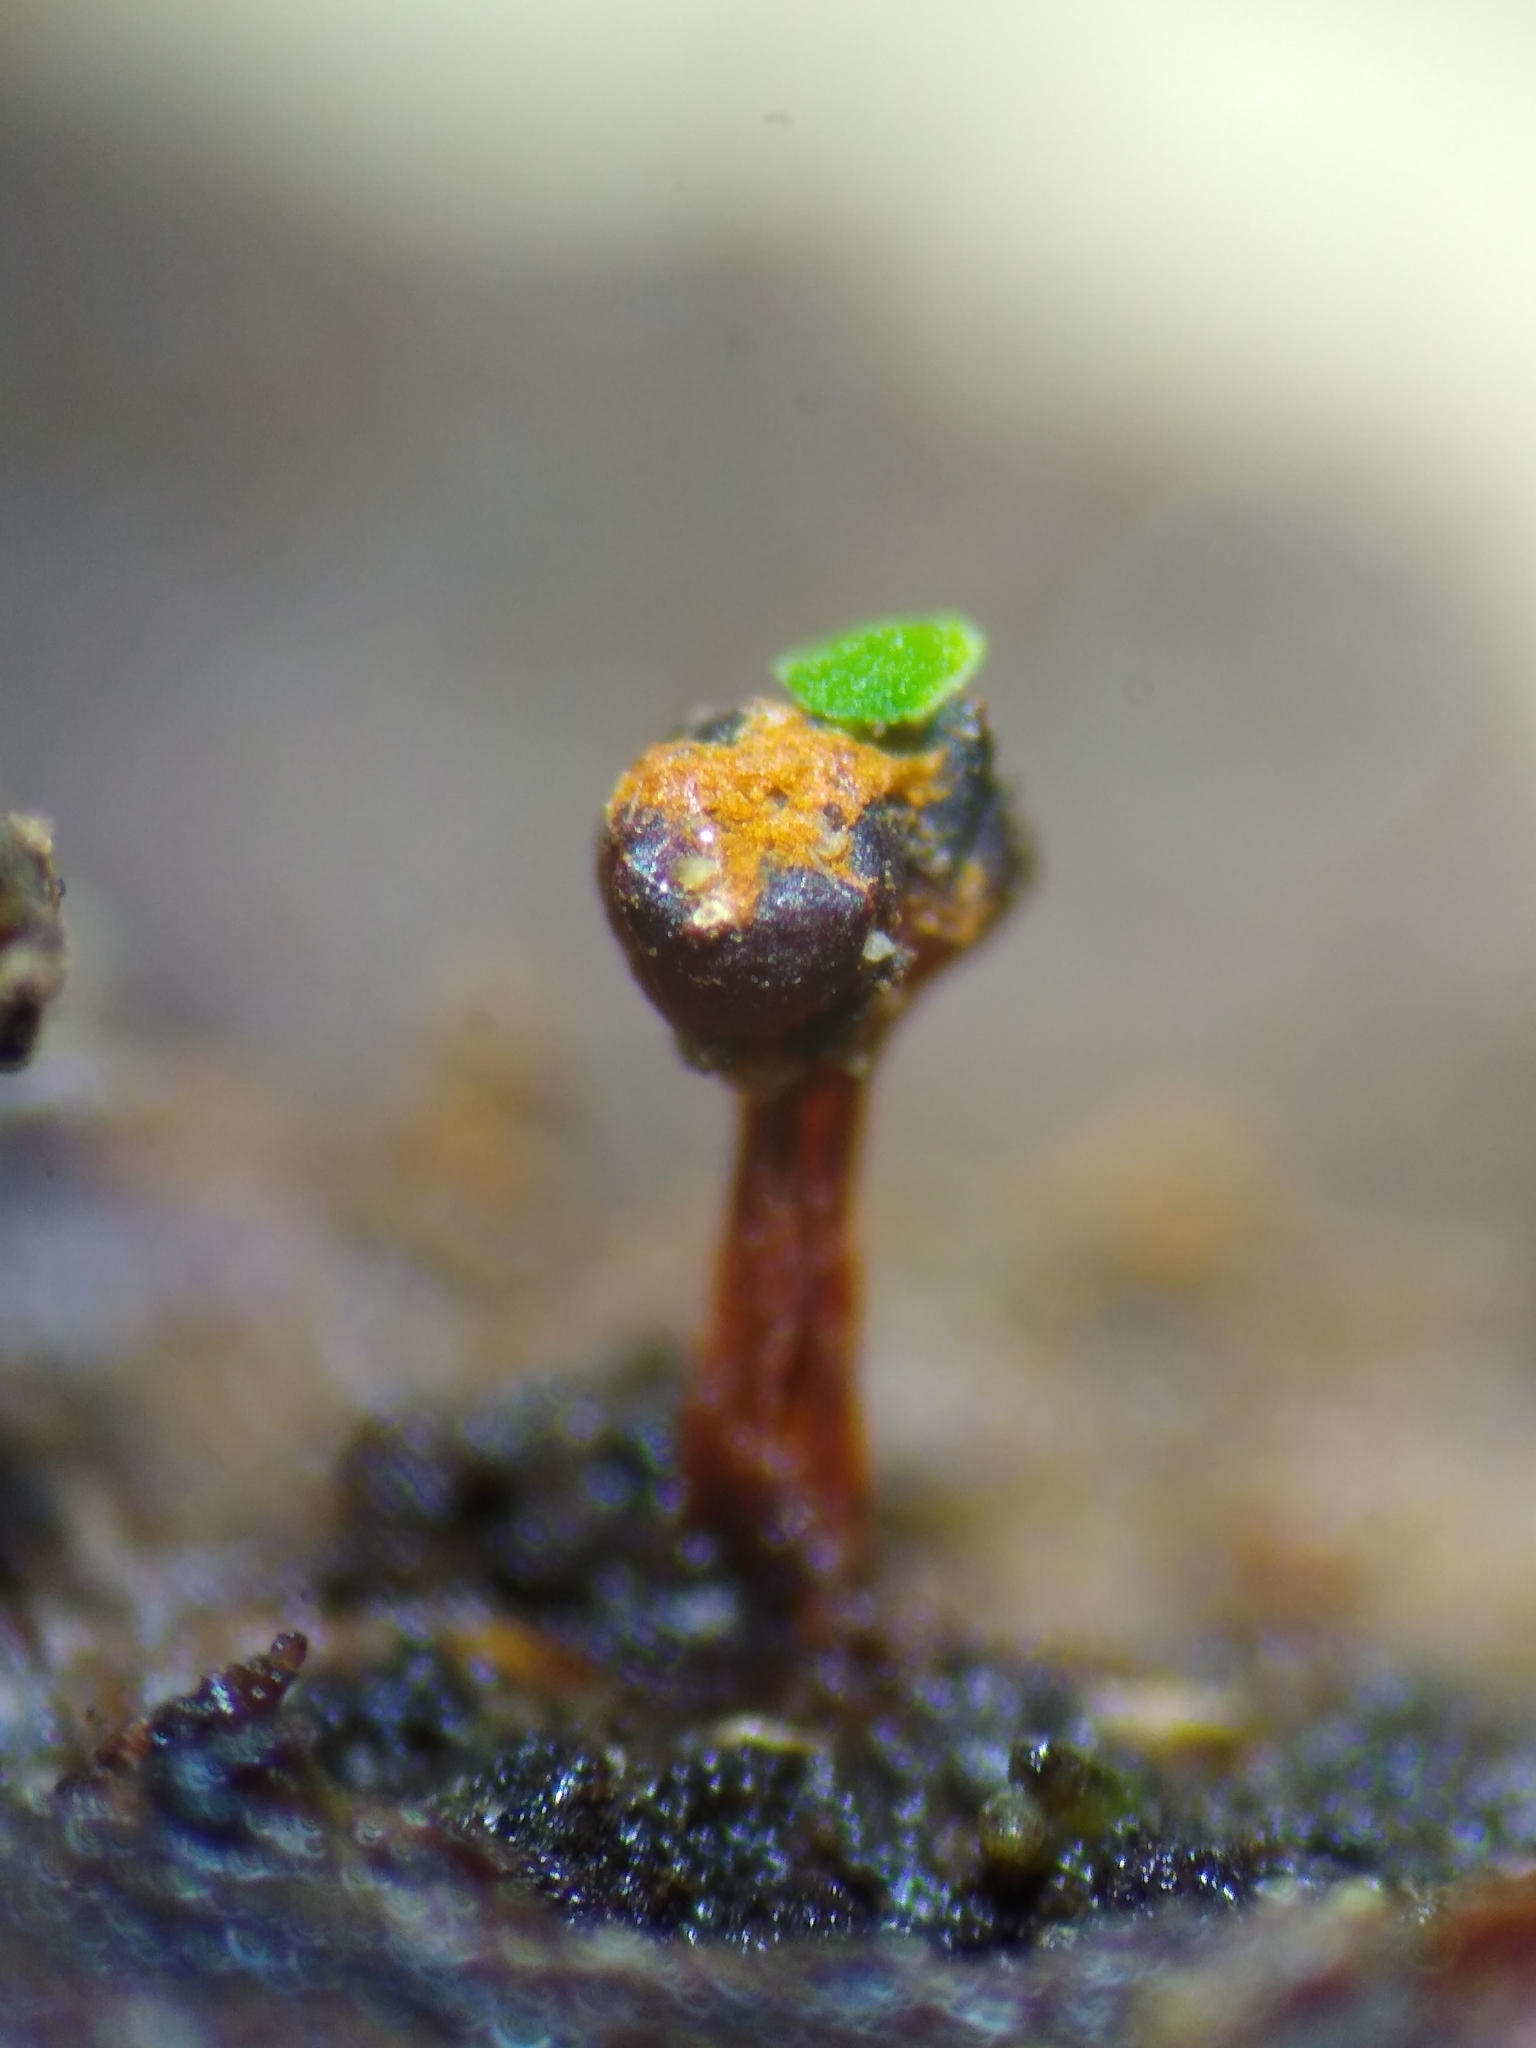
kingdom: Protozoa
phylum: Mycetozoa
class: Myxomycetes
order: Trichiales
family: Trichiaceae
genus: Metatrichia
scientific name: Metatrichia floriformis
